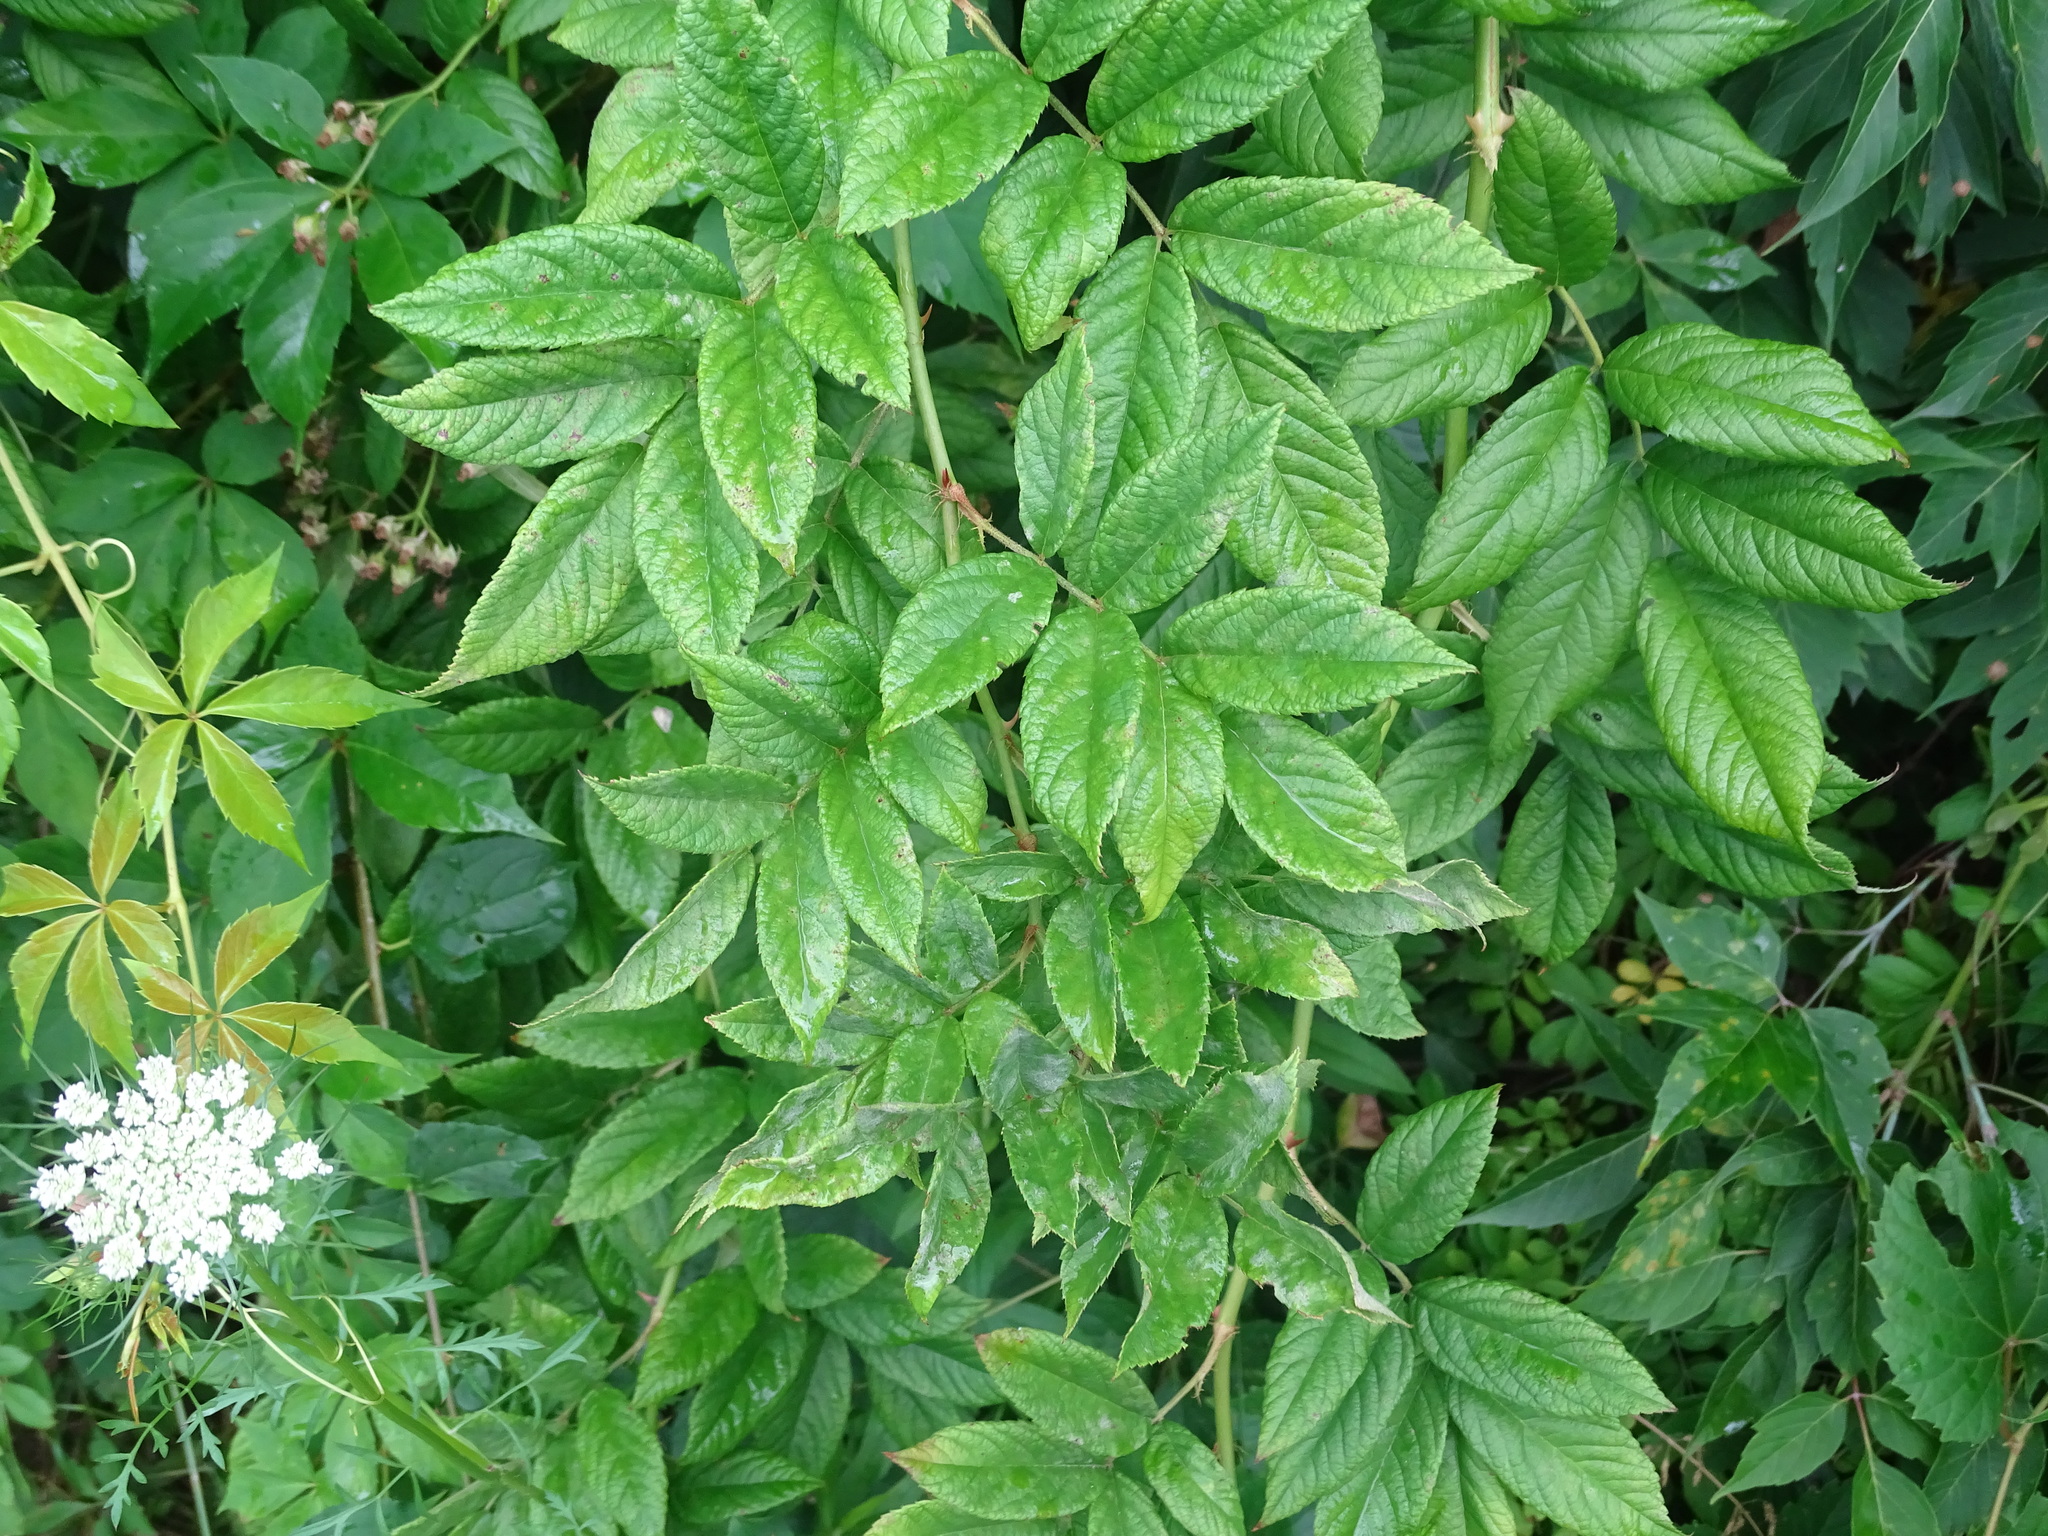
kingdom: Plantae
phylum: Tracheophyta
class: Magnoliopsida
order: Rosales
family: Rosaceae
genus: Rosa
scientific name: Rosa multiflora
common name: Multiflora rose
